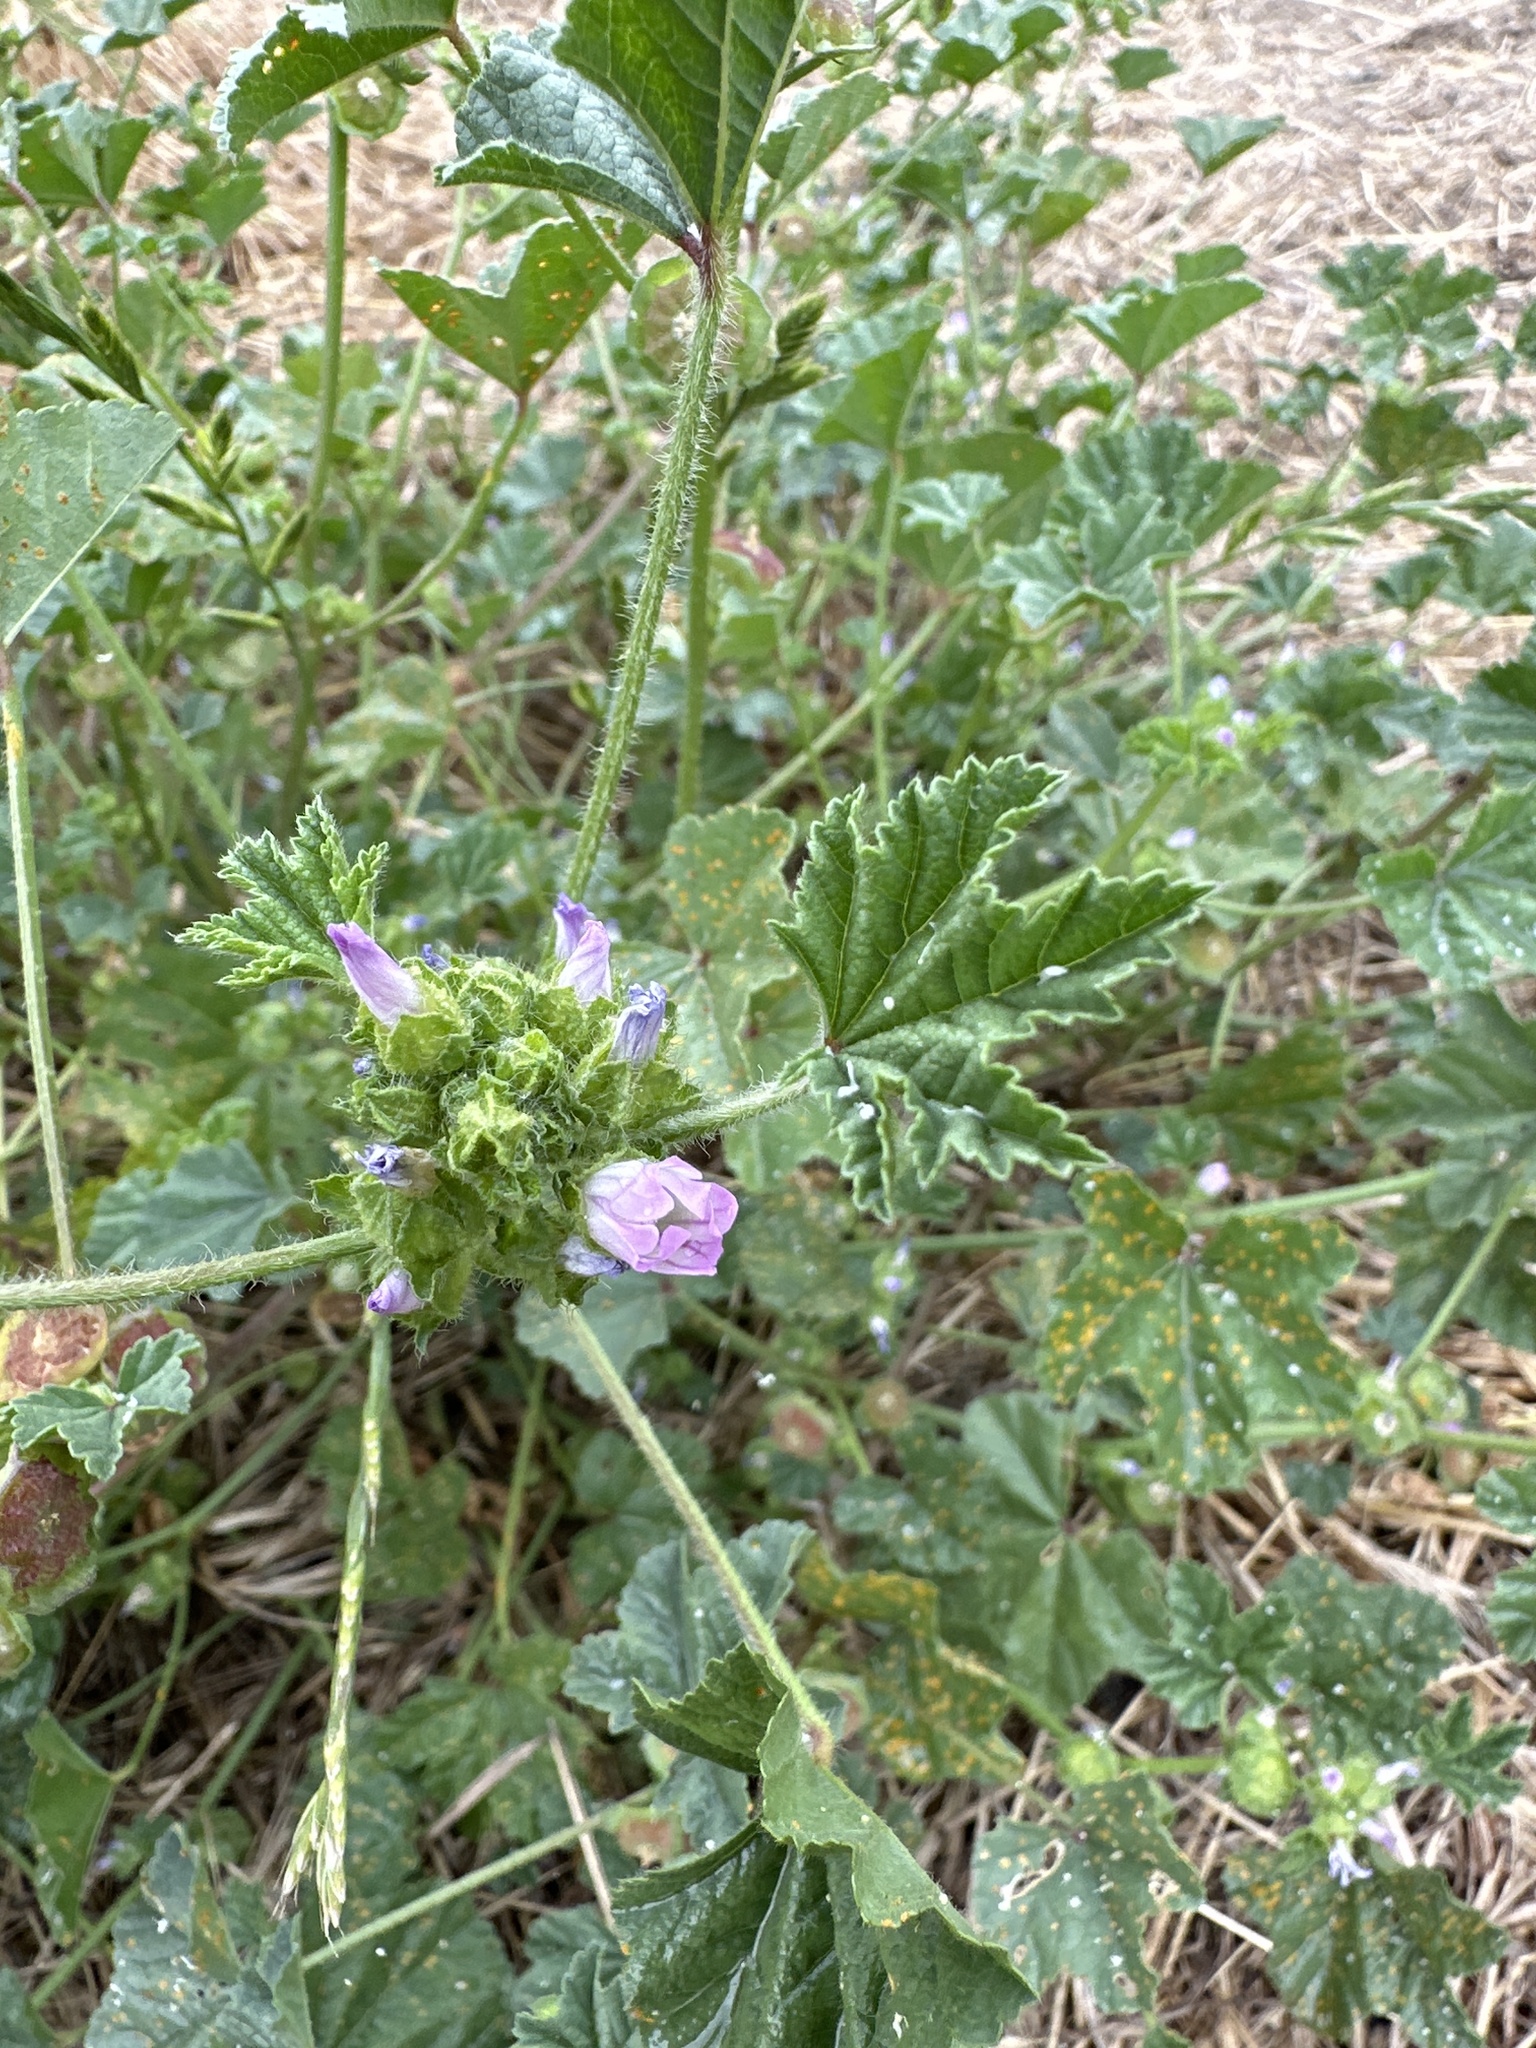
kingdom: Plantae
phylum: Tracheophyta
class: Magnoliopsida
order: Malvales
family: Malvaceae
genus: Malva
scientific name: Malva nicaeensis
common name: French mallow
